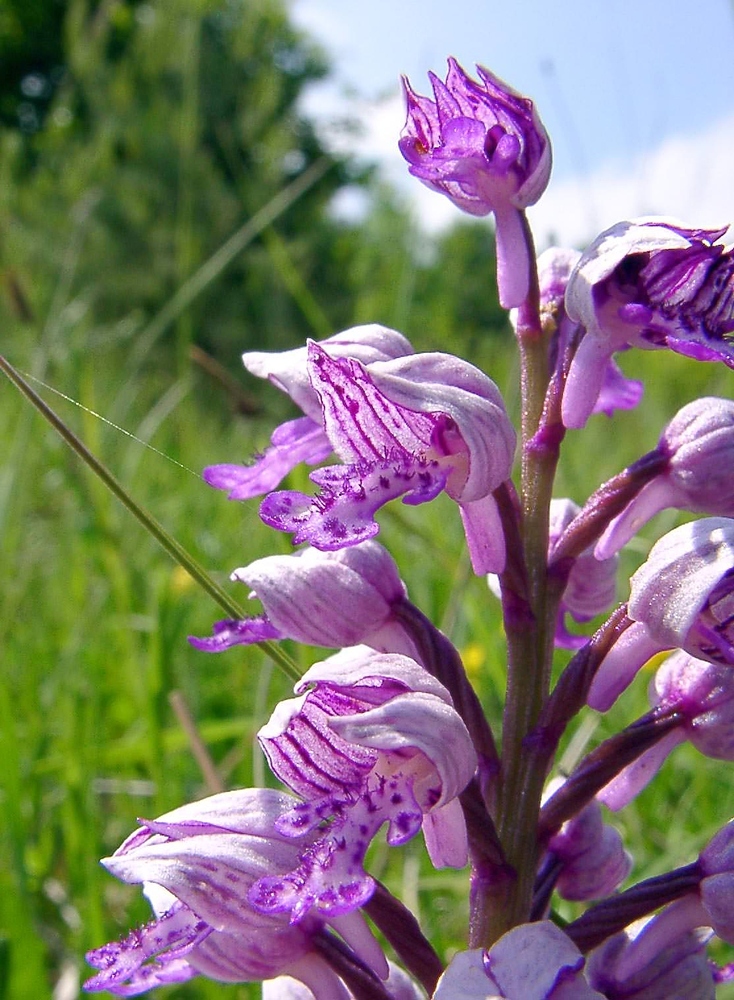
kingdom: Plantae
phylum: Tracheophyta
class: Liliopsida
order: Asparagales
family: Orchidaceae
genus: Orchis
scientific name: Orchis militaris
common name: Military orchid
